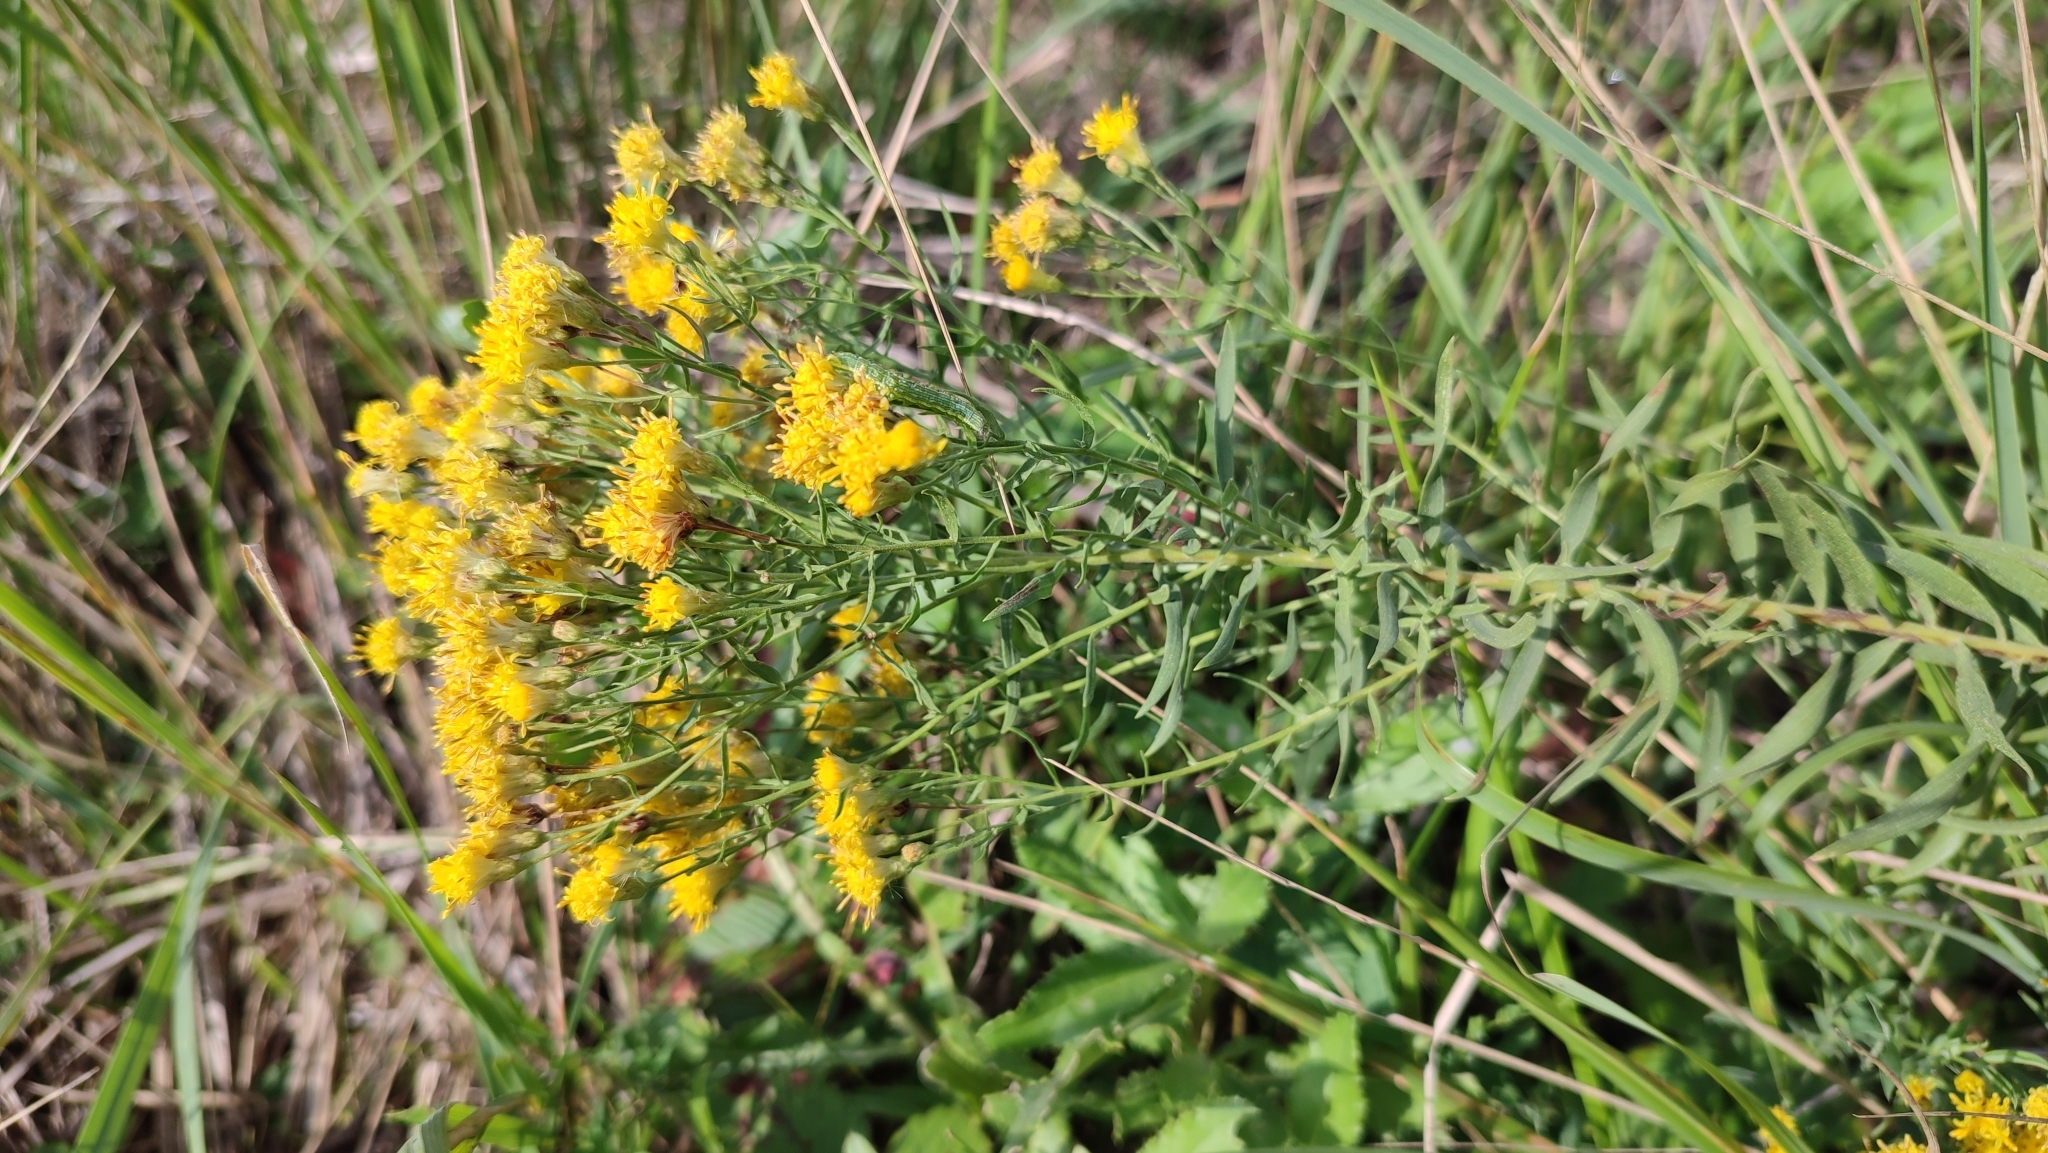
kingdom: Plantae
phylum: Tracheophyta
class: Magnoliopsida
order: Asterales
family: Asteraceae
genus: Galatella
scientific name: Galatella biflora
